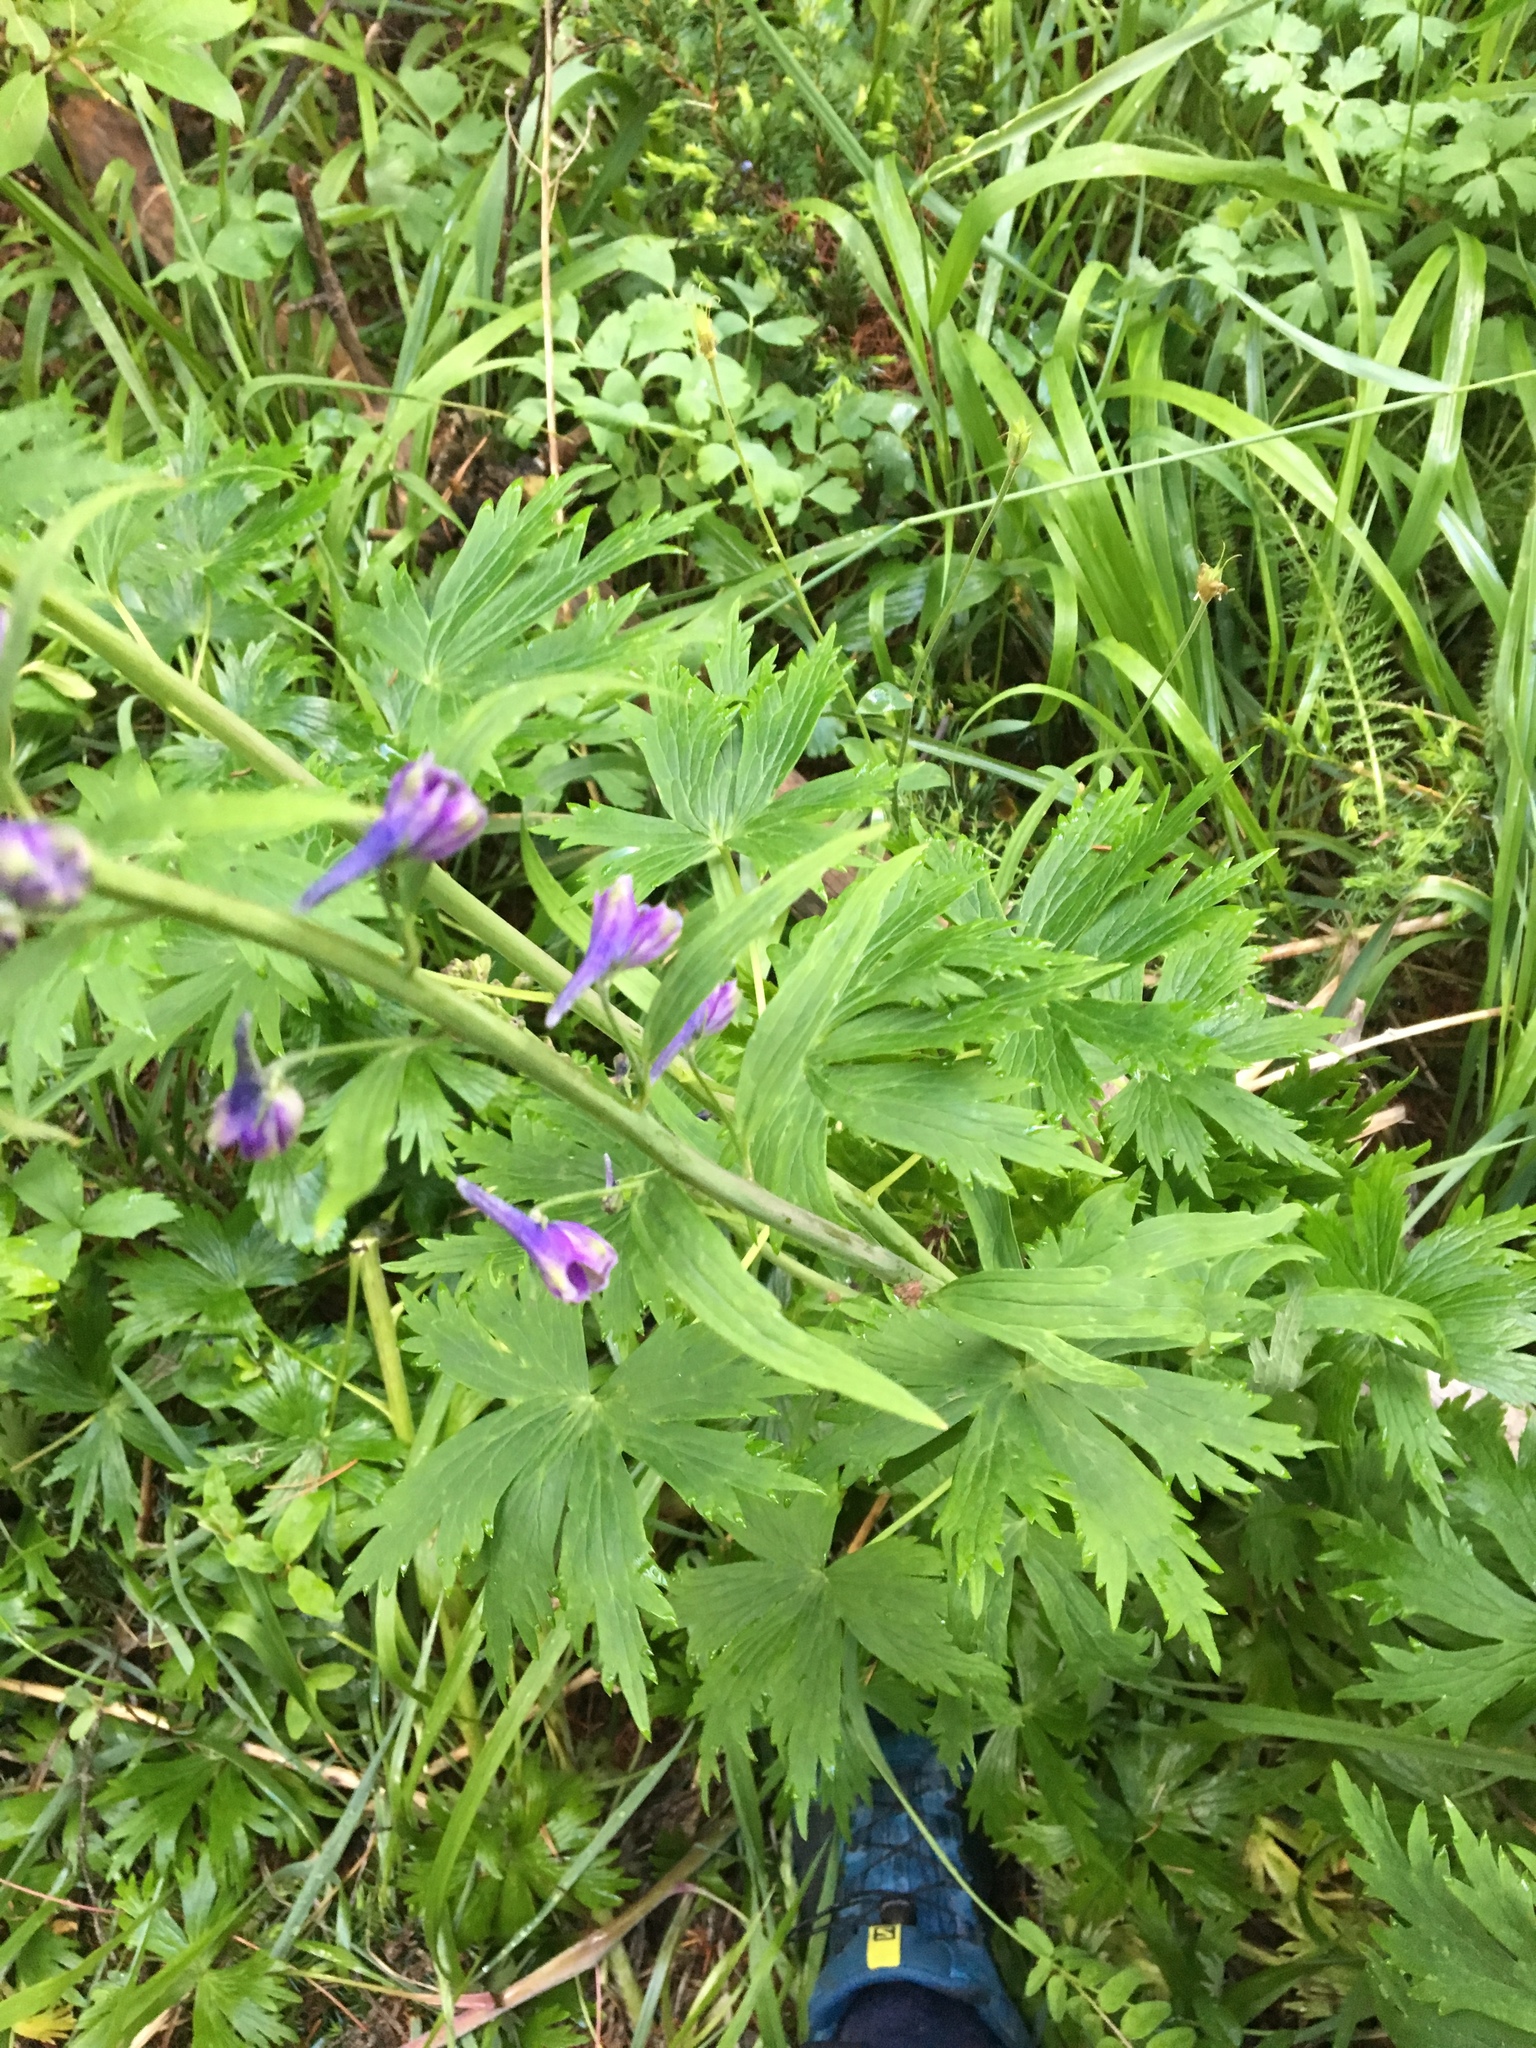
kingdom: Plantae
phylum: Tracheophyta
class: Magnoliopsida
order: Ranunculales
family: Ranunculaceae
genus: Delphinium
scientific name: Delphinium glaucum
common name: Brown's larkspur
